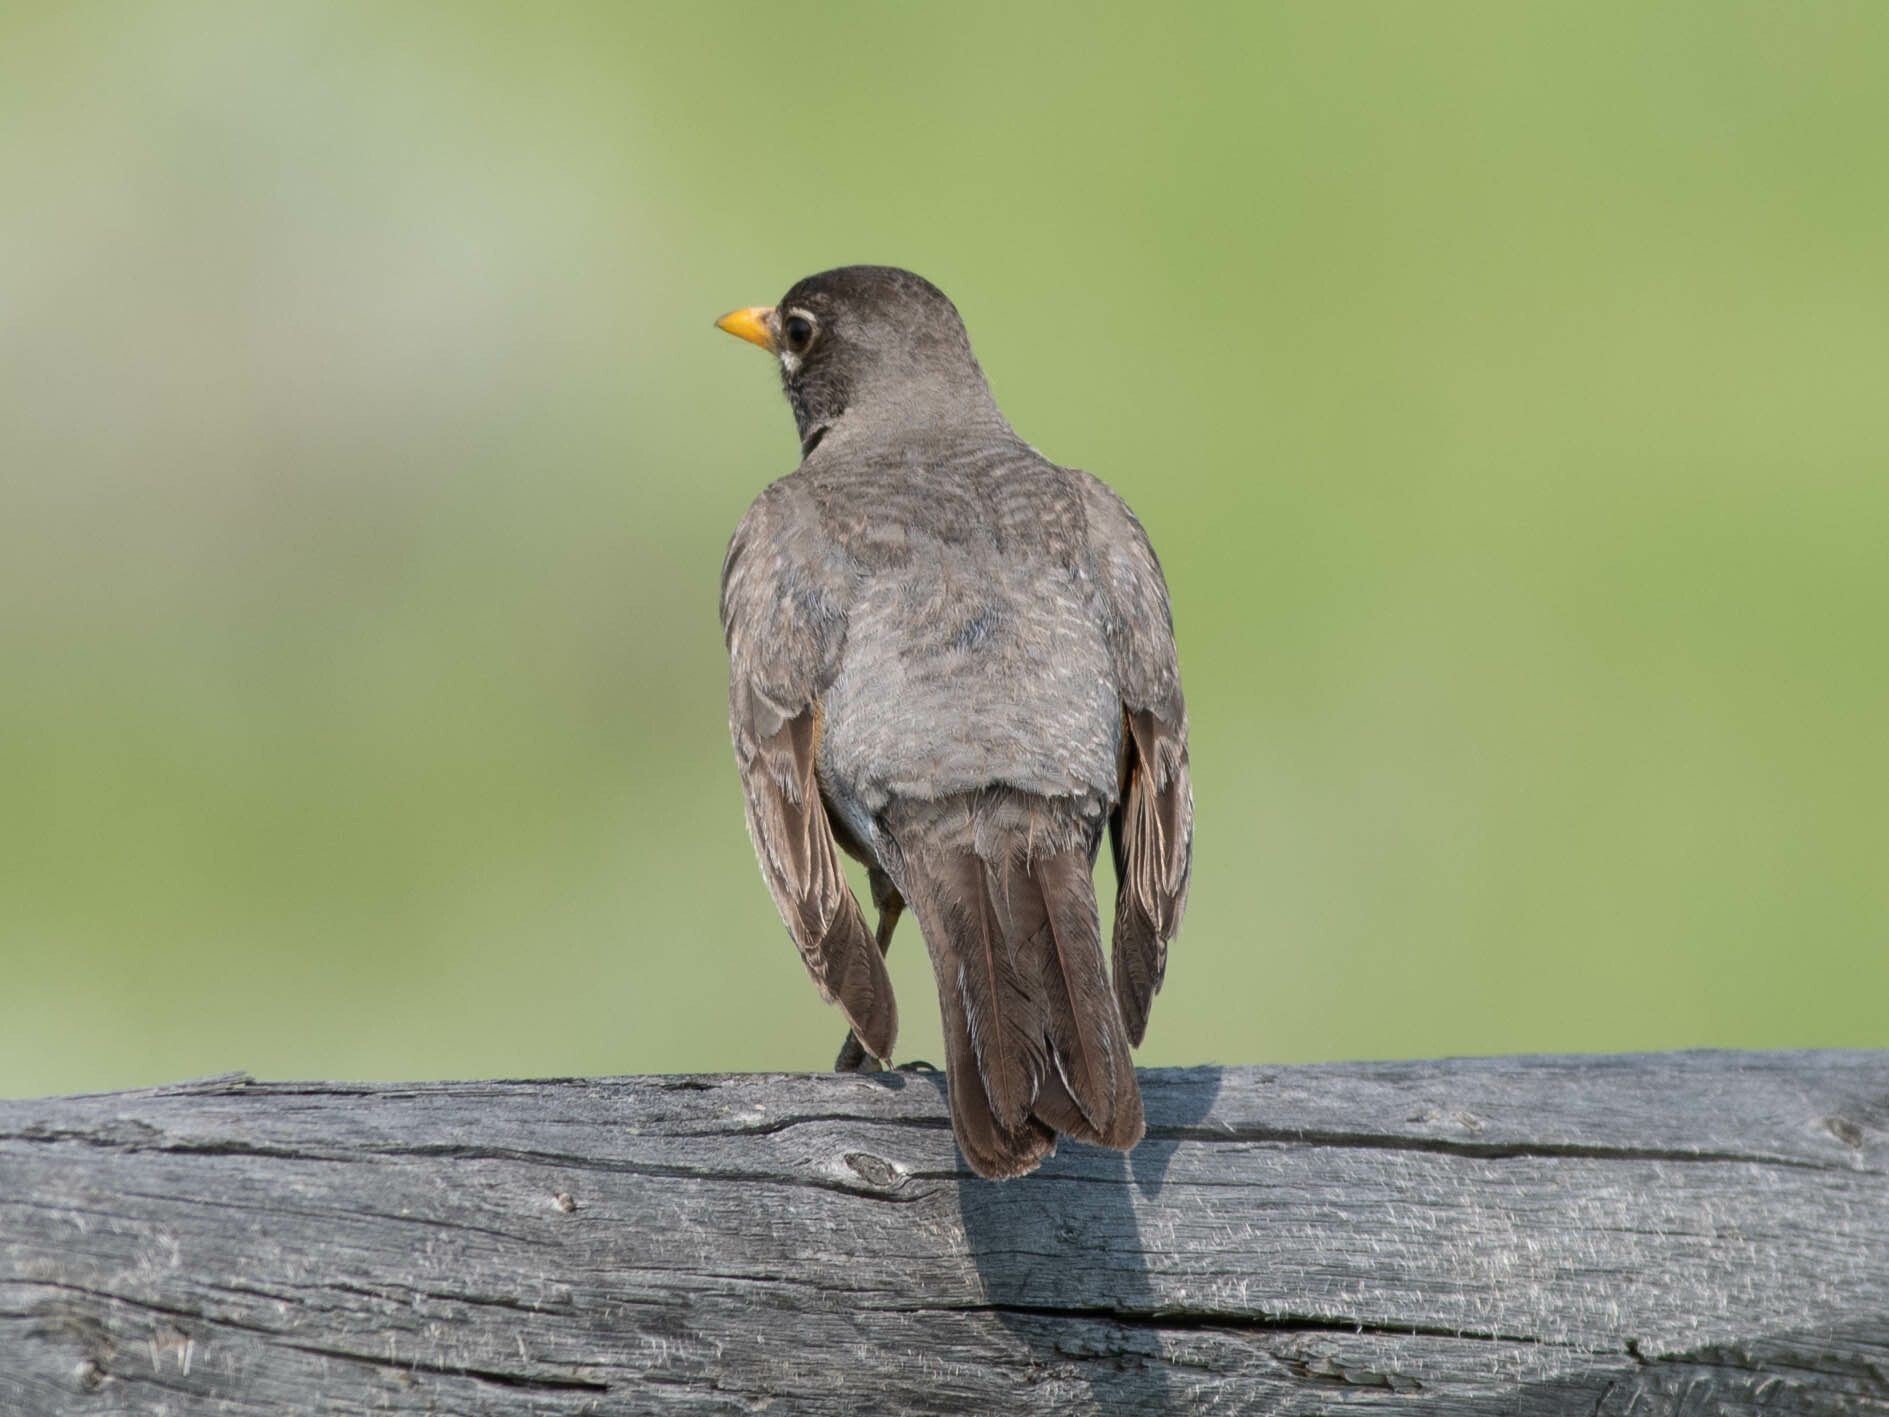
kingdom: Animalia
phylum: Chordata
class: Aves
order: Passeriformes
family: Turdidae
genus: Turdus
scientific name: Turdus migratorius
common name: American robin
